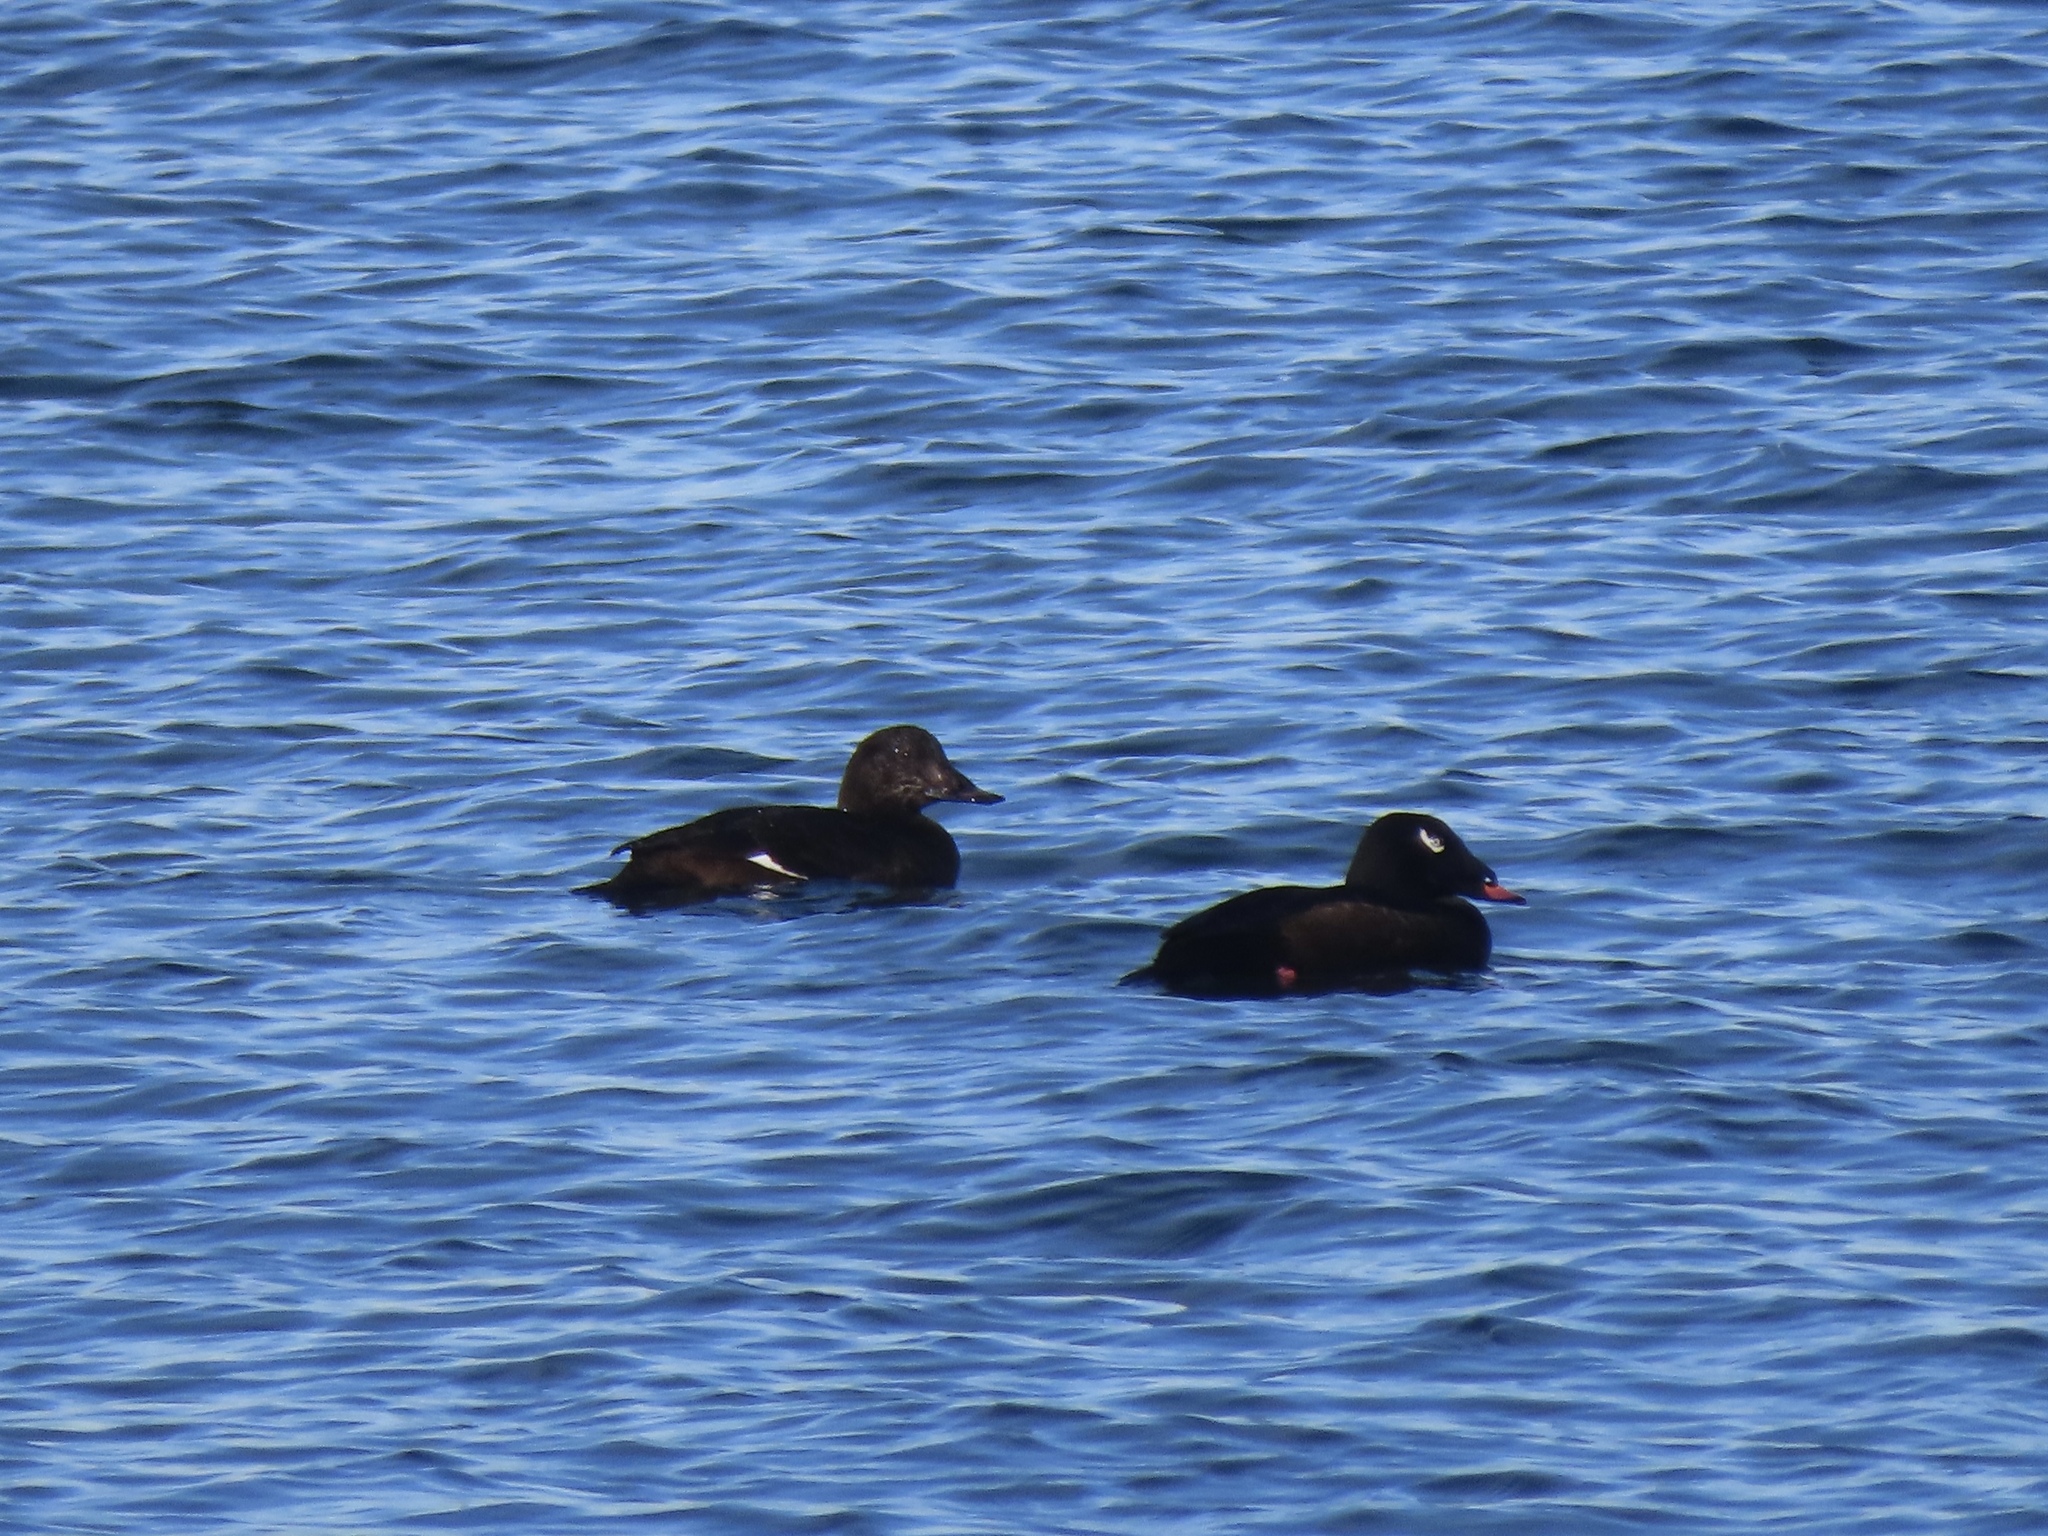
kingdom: Animalia
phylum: Chordata
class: Aves
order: Anseriformes
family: Anatidae
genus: Melanitta
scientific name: Melanitta deglandi
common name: White-winged scoter
